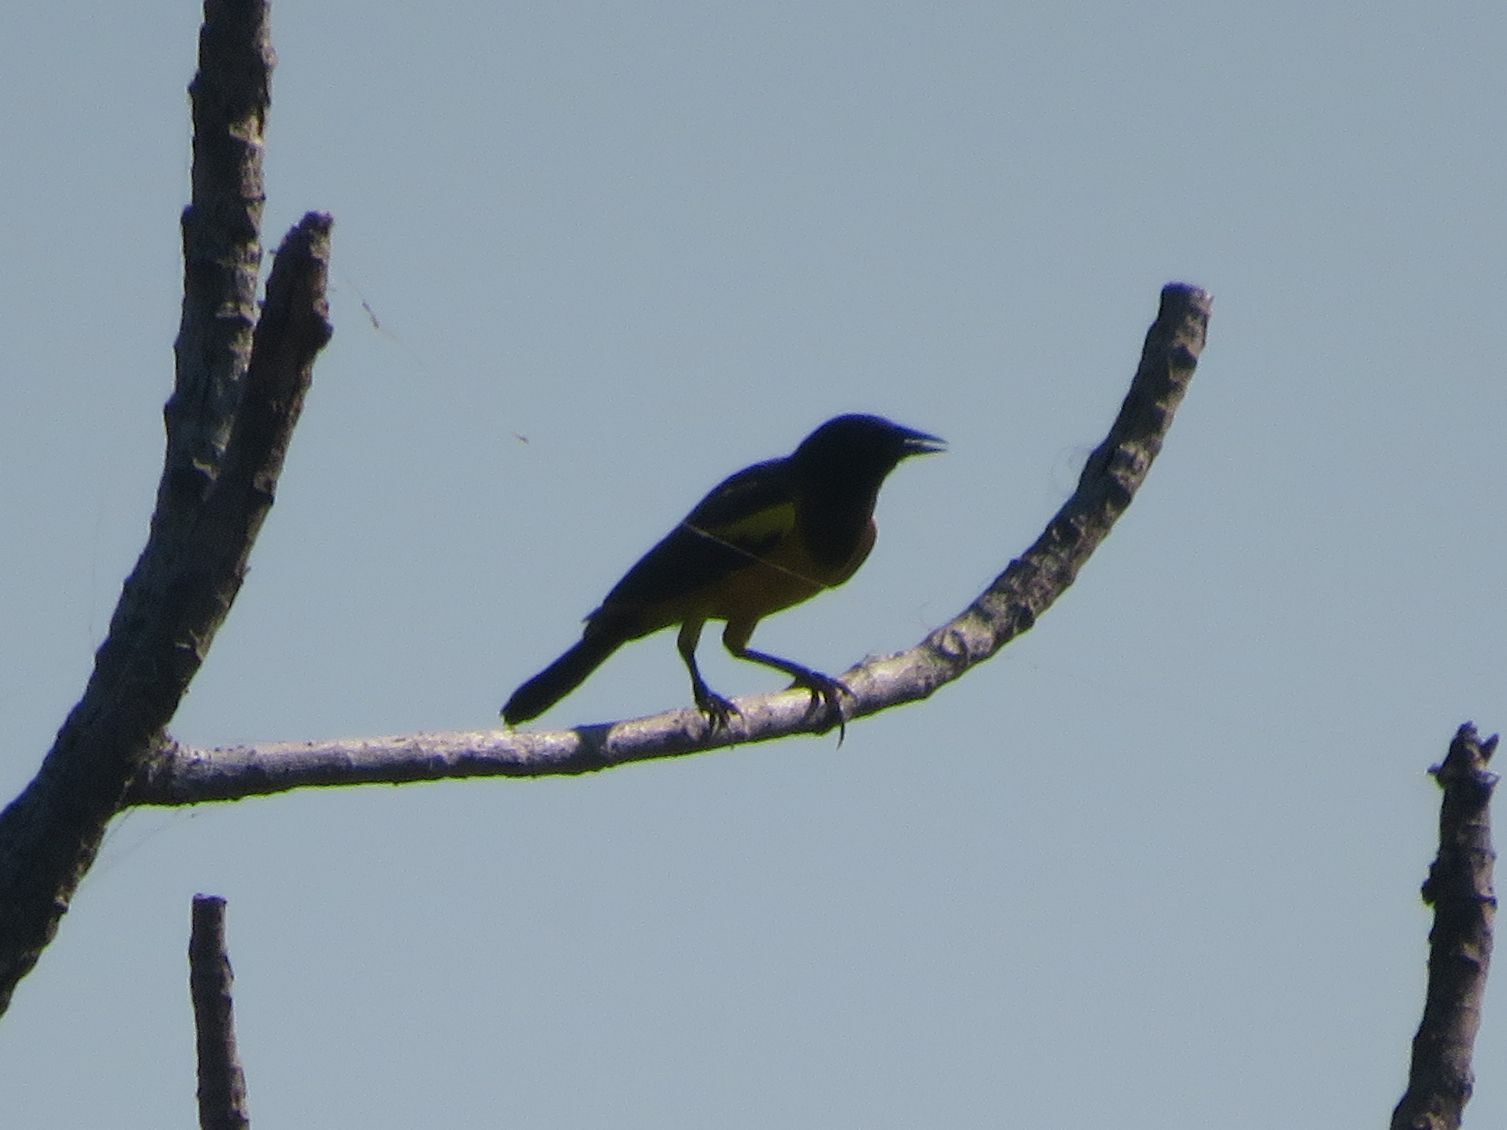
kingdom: Animalia
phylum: Chordata
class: Aves
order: Passeriformes
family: Icteridae
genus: Pseudoleistes
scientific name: Pseudoleistes guirahuro
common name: Yellow-rumped marshbird
